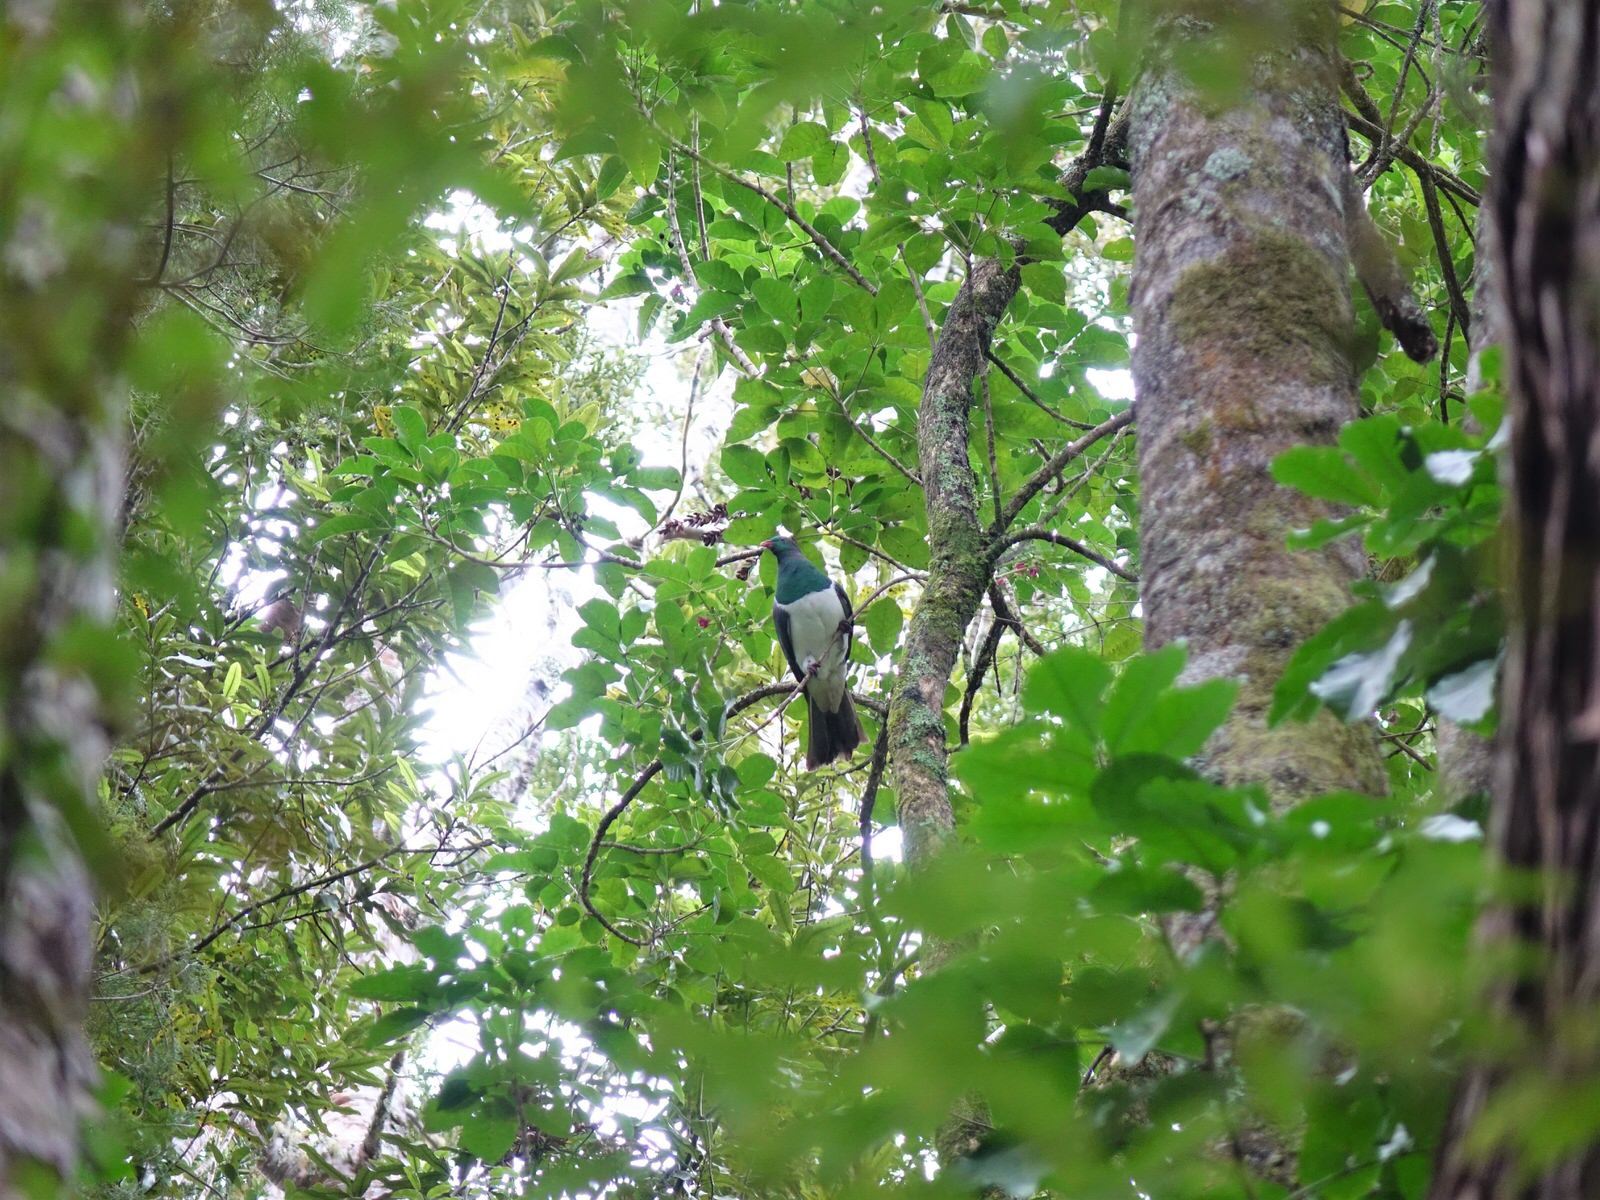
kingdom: Animalia
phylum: Chordata
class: Aves
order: Columbiformes
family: Columbidae
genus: Hemiphaga
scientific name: Hemiphaga novaeseelandiae
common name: New zealand pigeon
